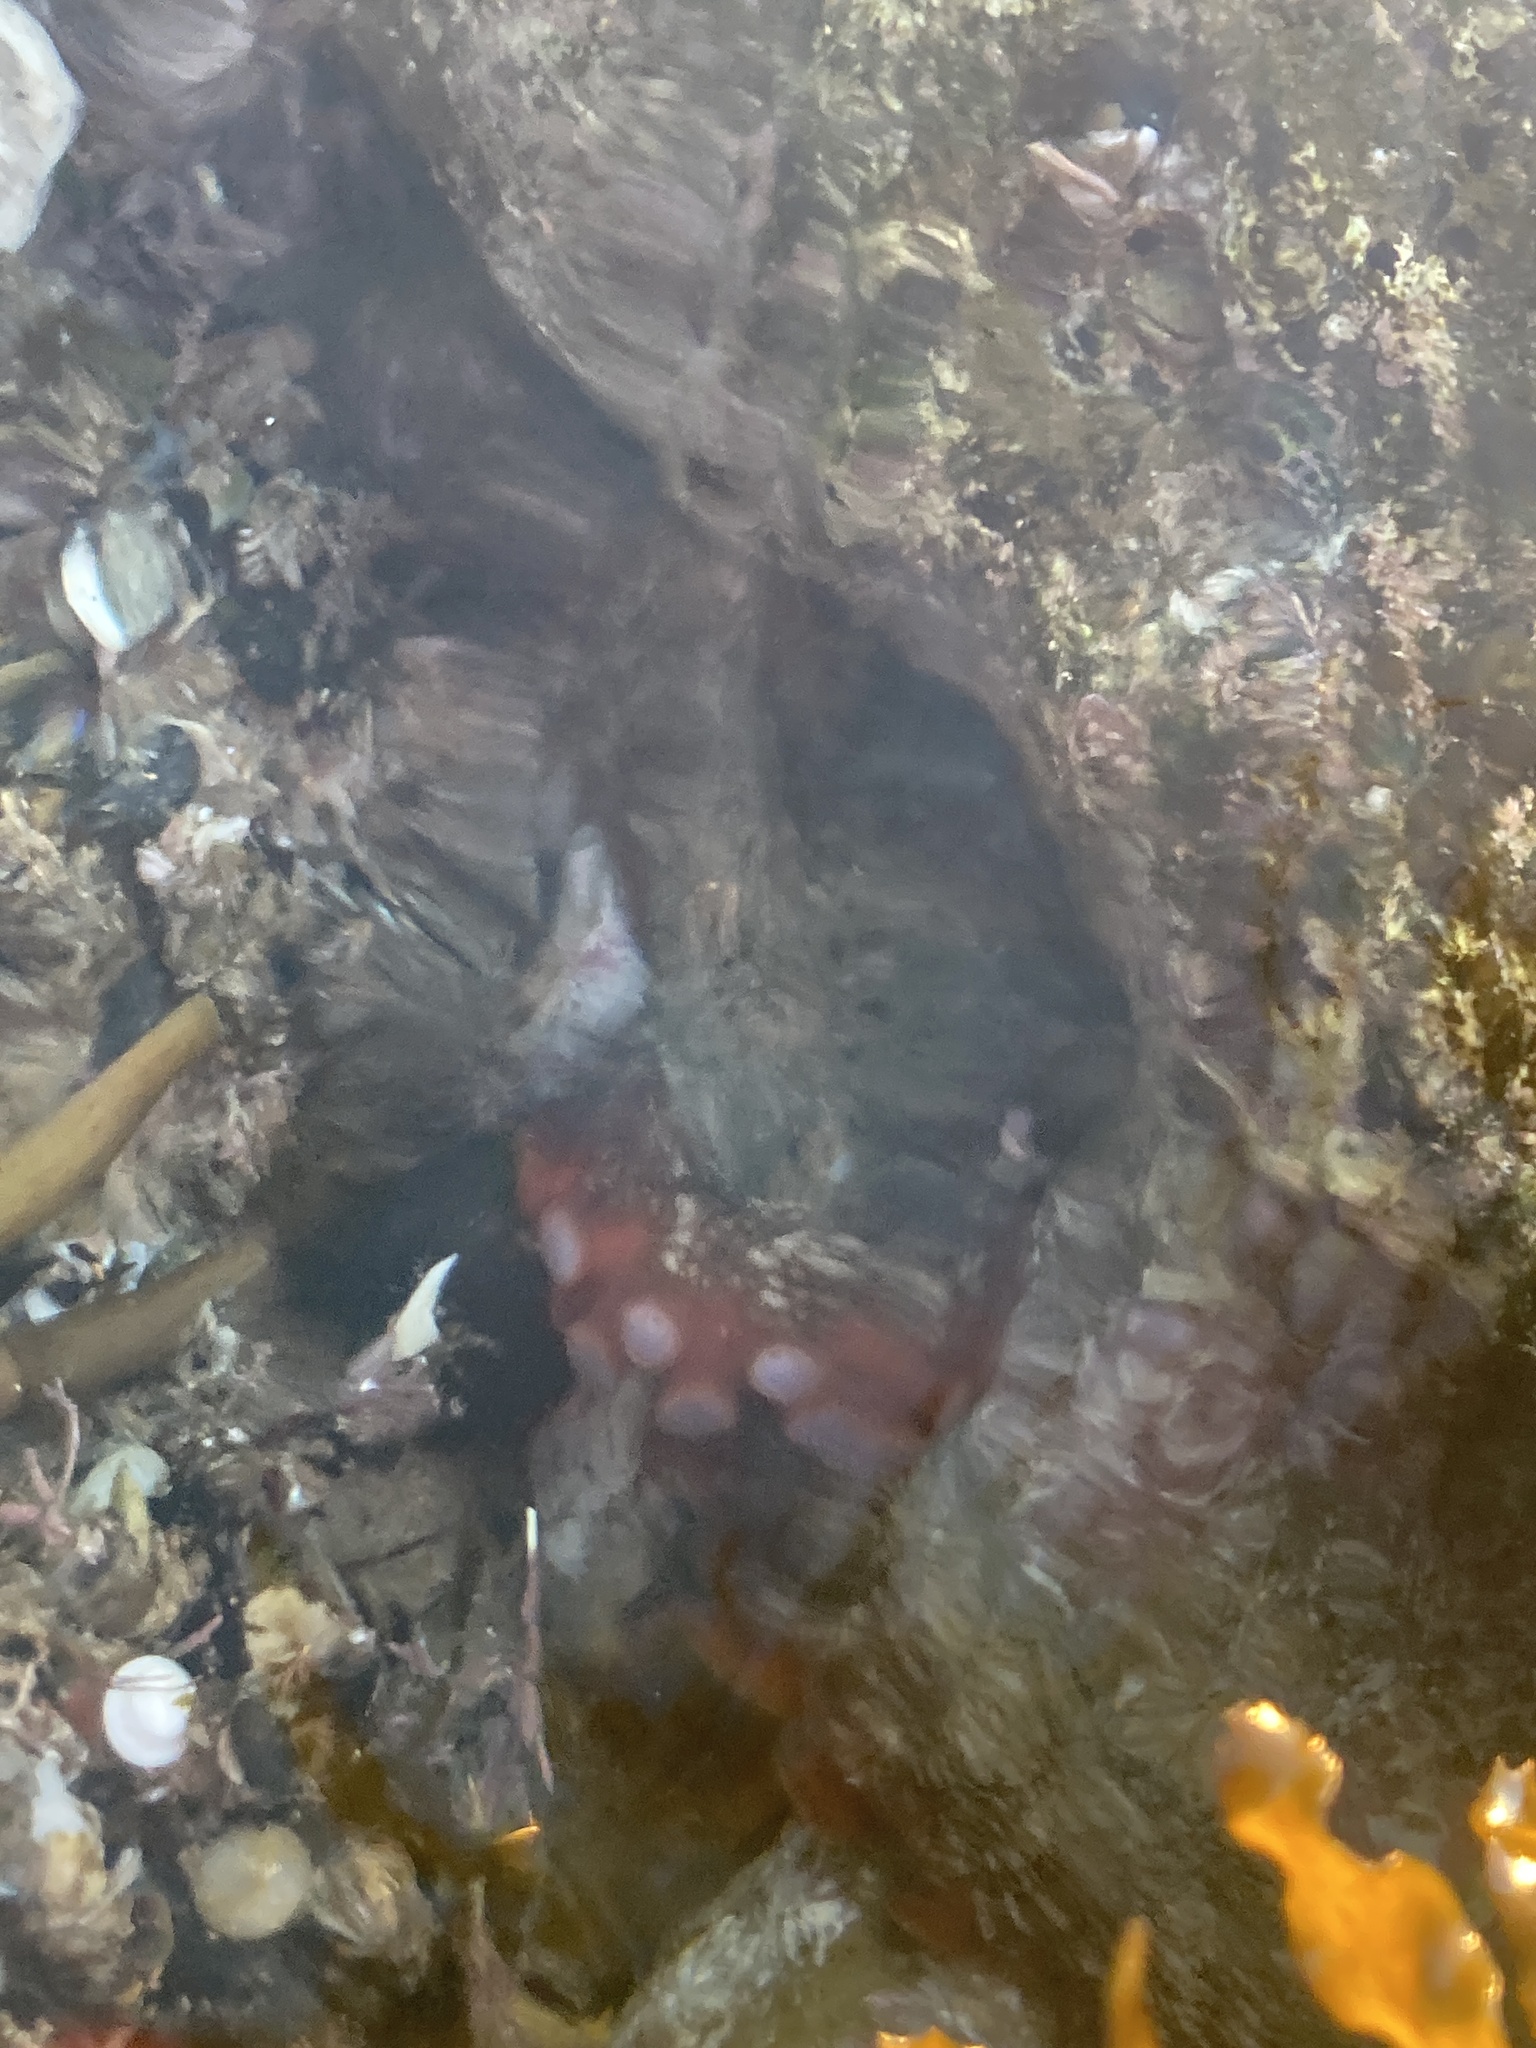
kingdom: Animalia
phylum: Mollusca
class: Cephalopoda
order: Octopoda
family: Octopodidae
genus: Octopus
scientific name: Octopus tetricus
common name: Sydney octopus
